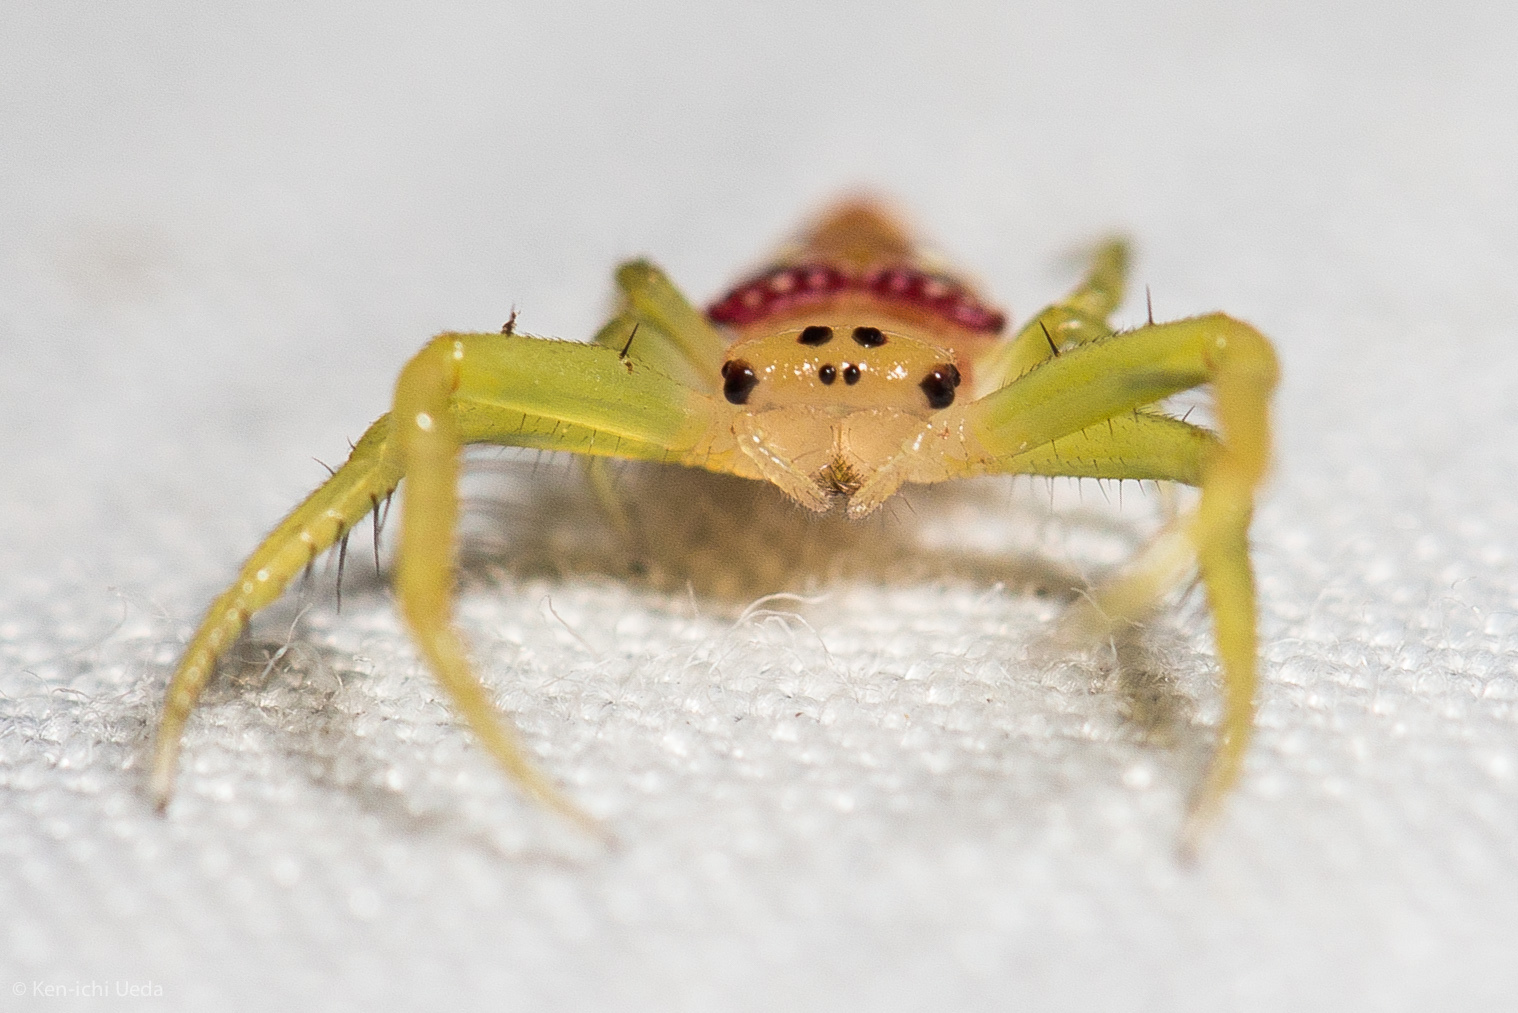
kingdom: Animalia
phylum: Arthropoda
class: Arachnida
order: Araneae
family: Arkyidae
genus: Arkys
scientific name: Arkys walckenaeri
